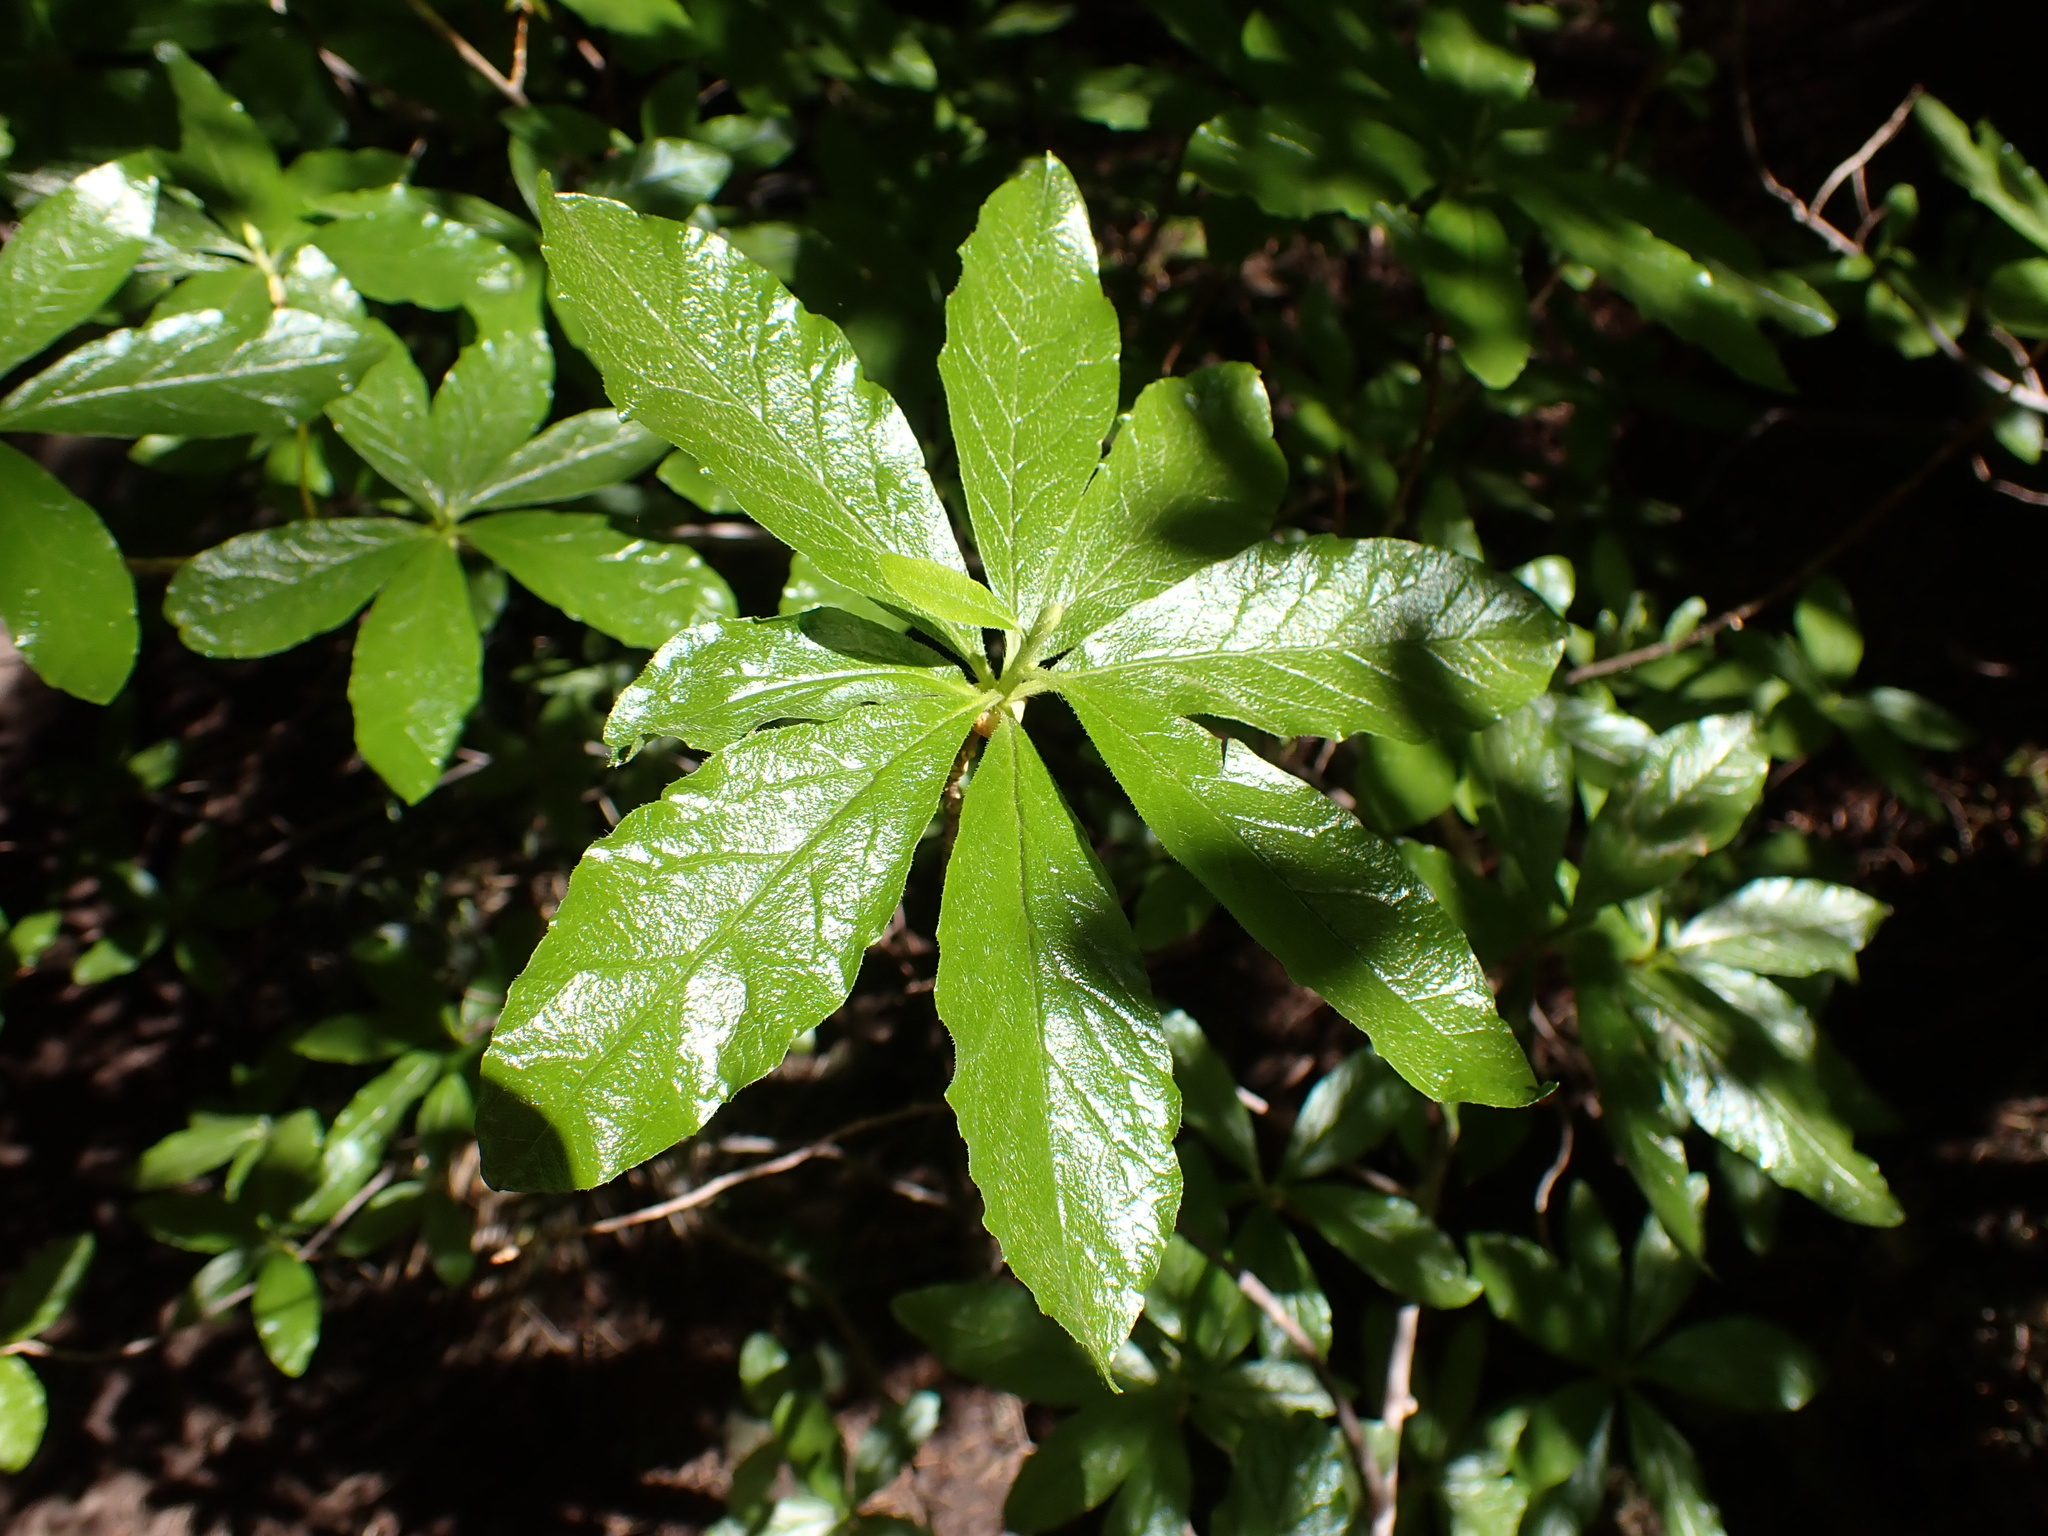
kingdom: Plantae
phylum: Tracheophyta
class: Magnoliopsida
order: Ericales
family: Ericaceae
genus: Rhododendron
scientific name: Rhododendron albiflorum
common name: White rhododendron
